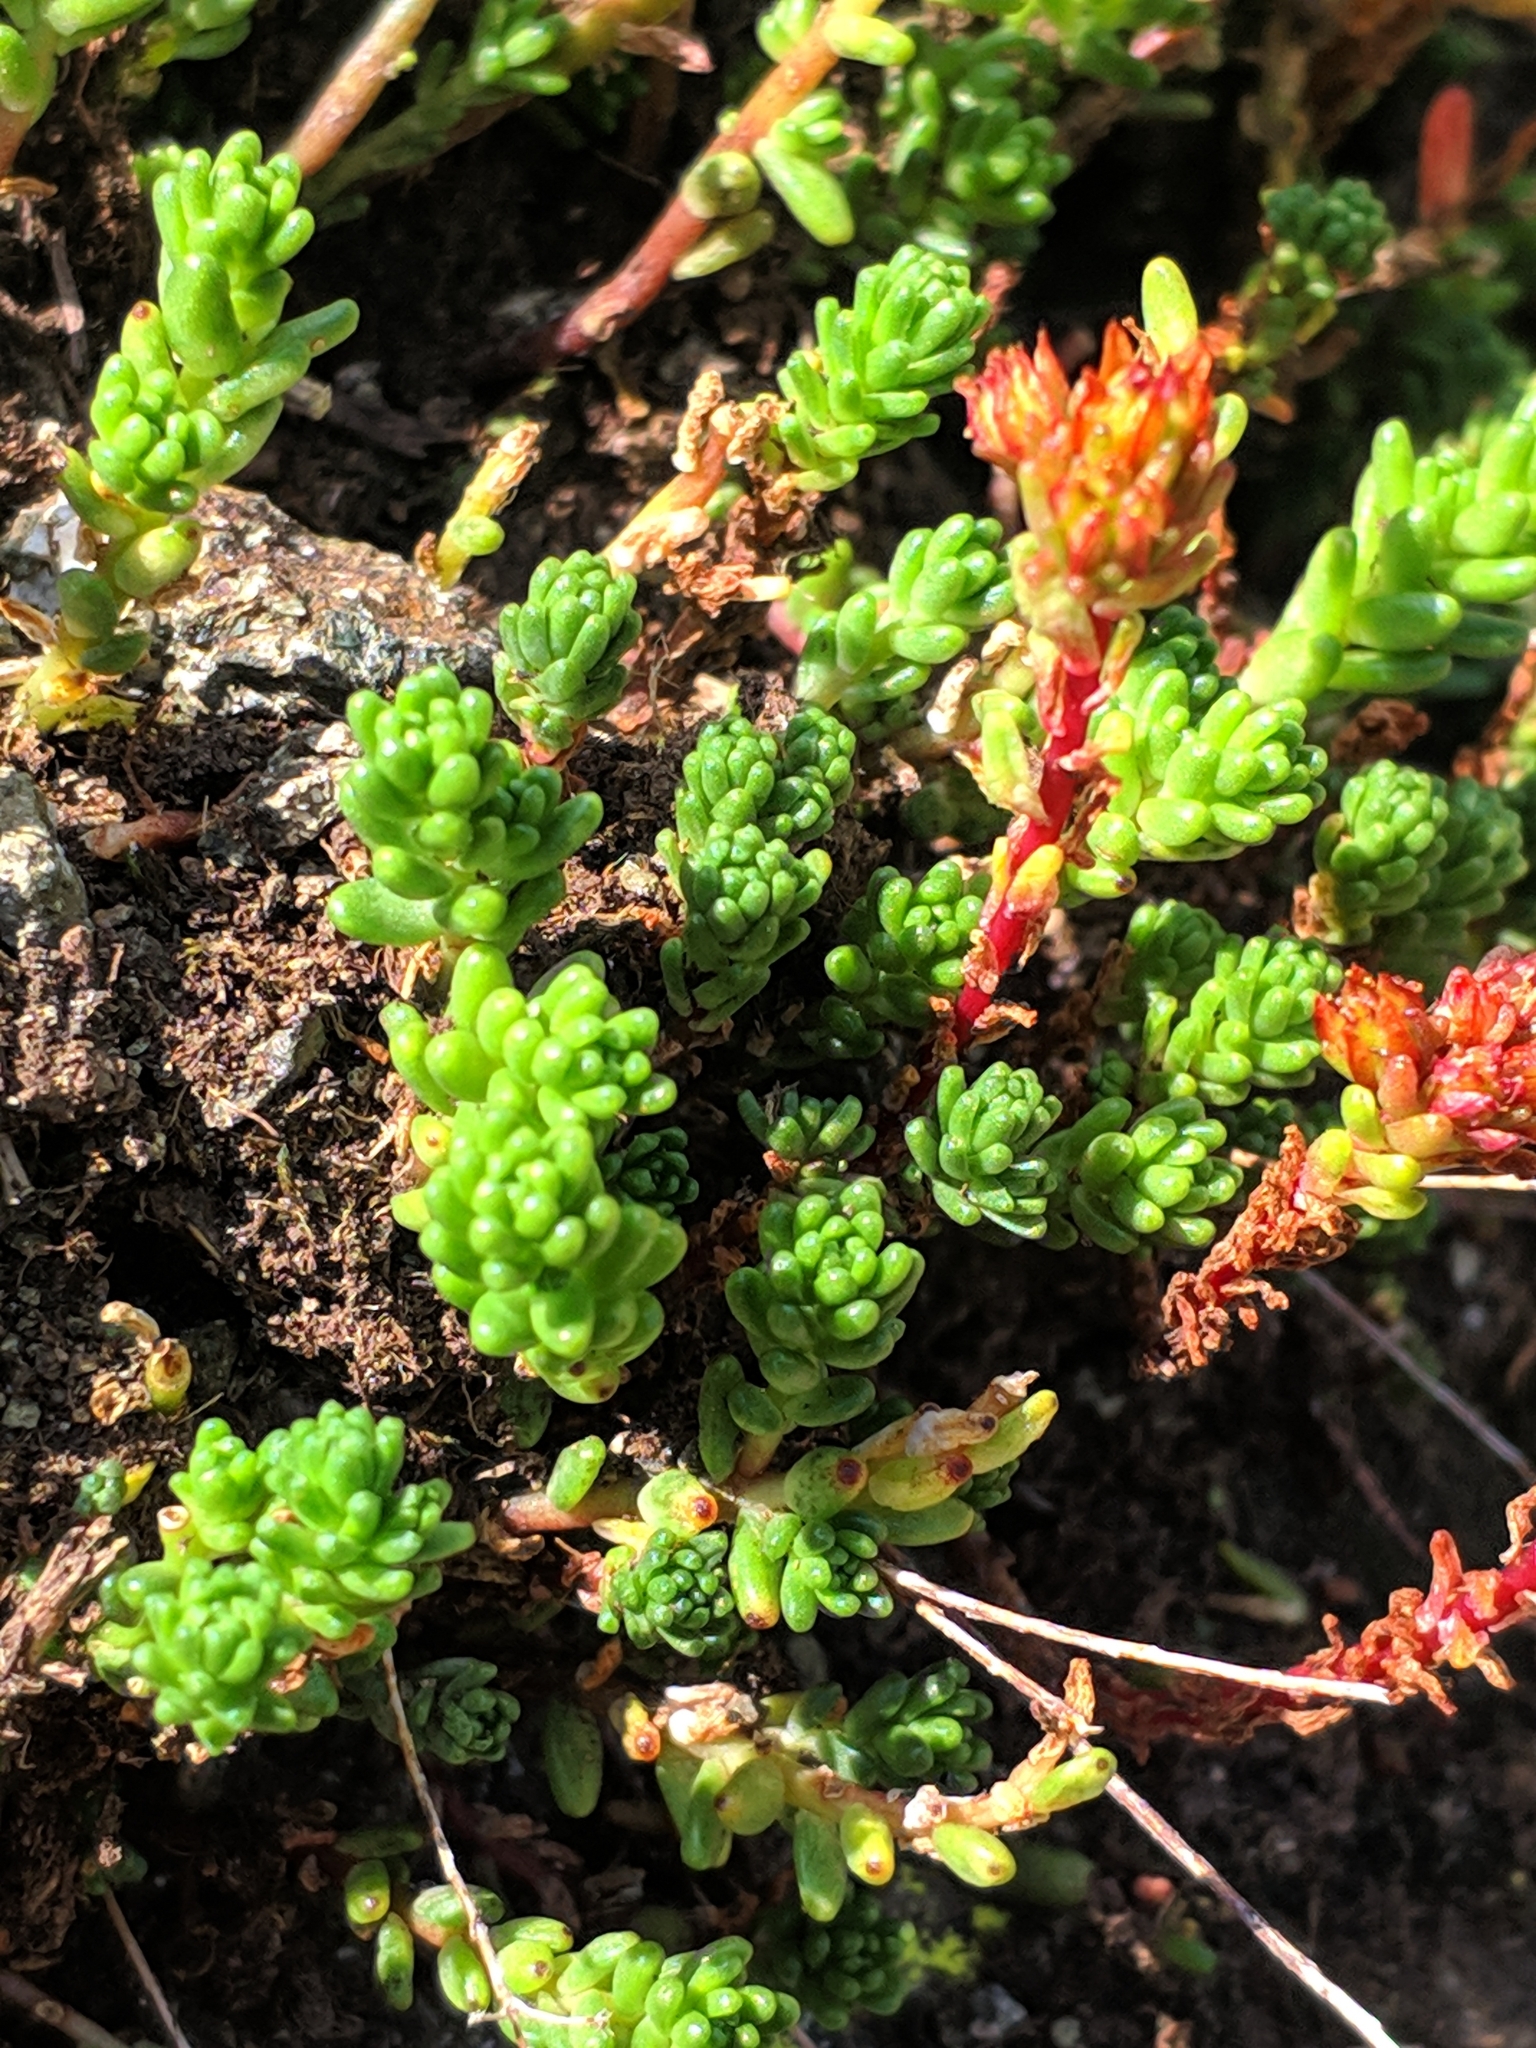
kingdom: Plantae
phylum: Tracheophyta
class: Magnoliopsida
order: Saxifragales
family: Crassulaceae
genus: Sedum
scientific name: Sedum tenellum
